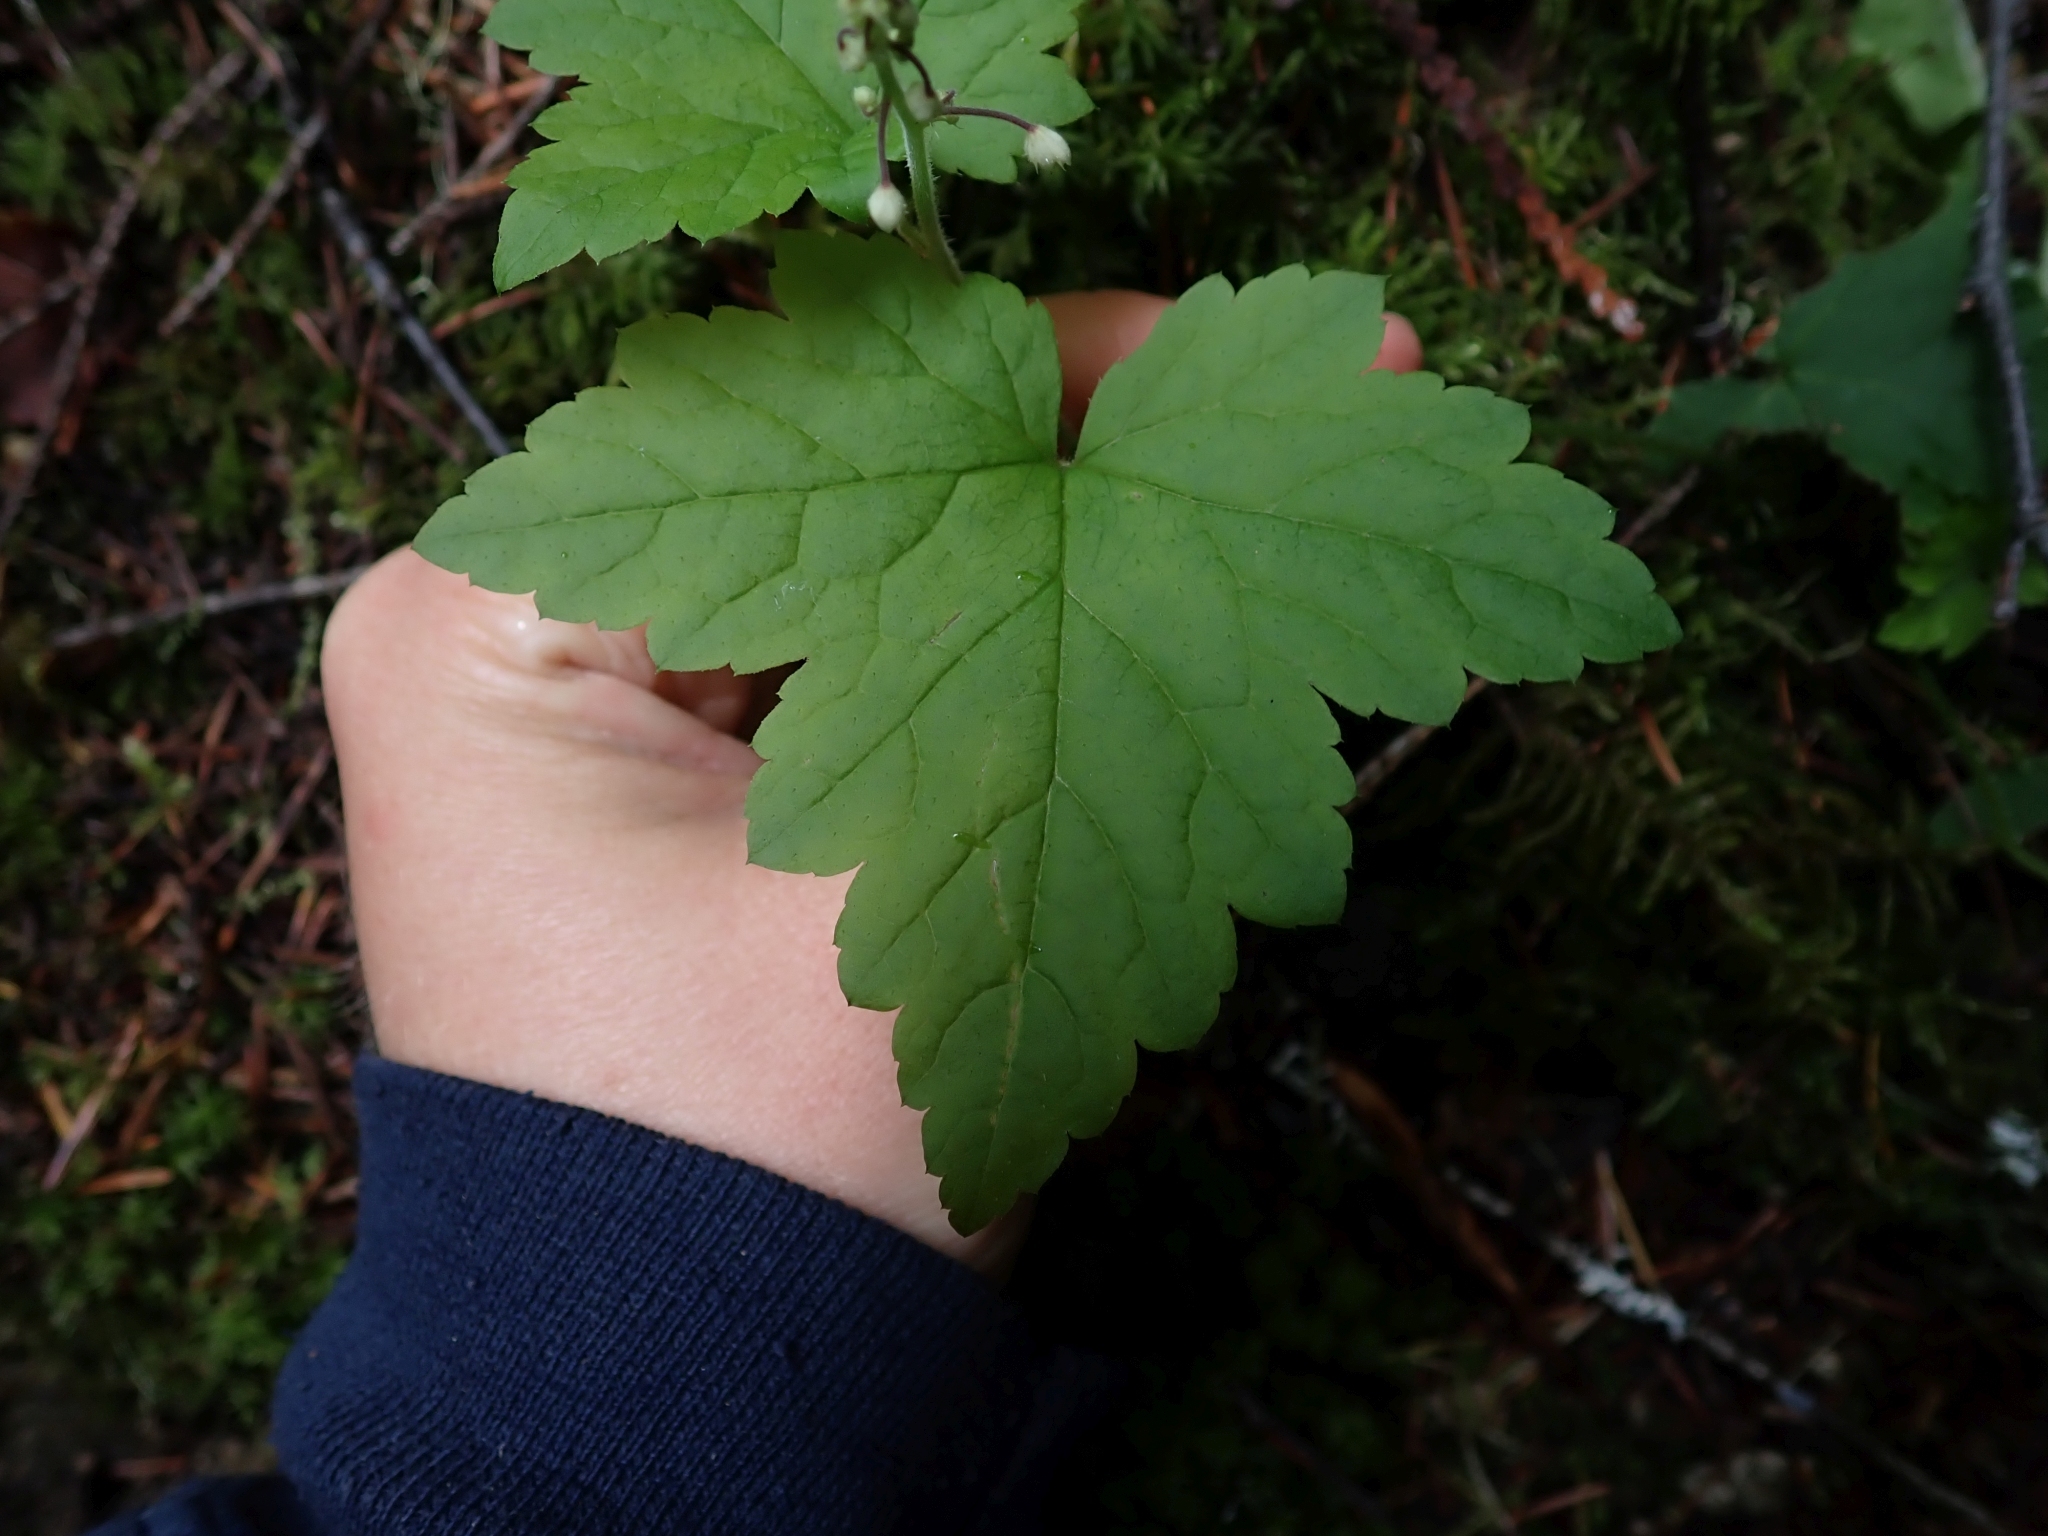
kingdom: Plantae
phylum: Tracheophyta
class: Magnoliopsida
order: Saxifragales
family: Saxifragaceae
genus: Tiarella
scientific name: Tiarella trifoliata
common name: Sugar-scoop
